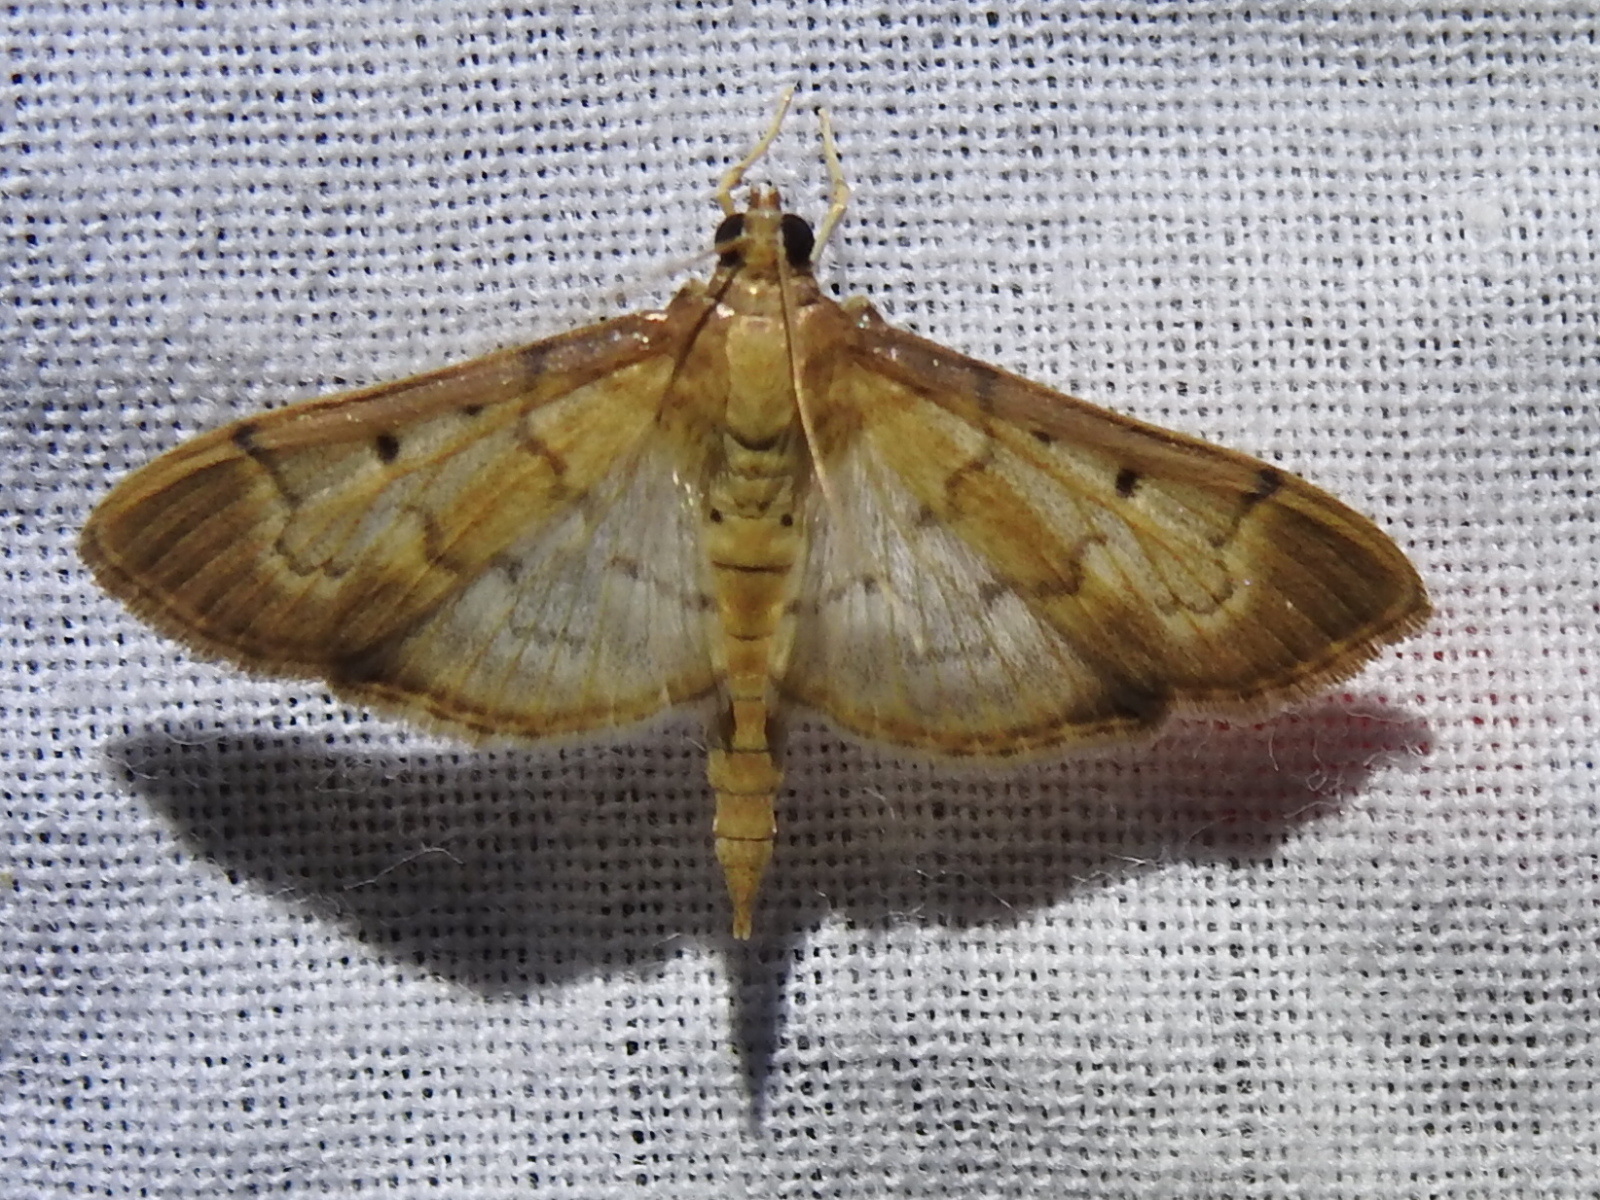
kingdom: Animalia
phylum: Arthropoda
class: Insecta
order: Lepidoptera
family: Crambidae
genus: Herpetogramma
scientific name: Herpetogramma bipunctalis
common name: Southern beet webworm
